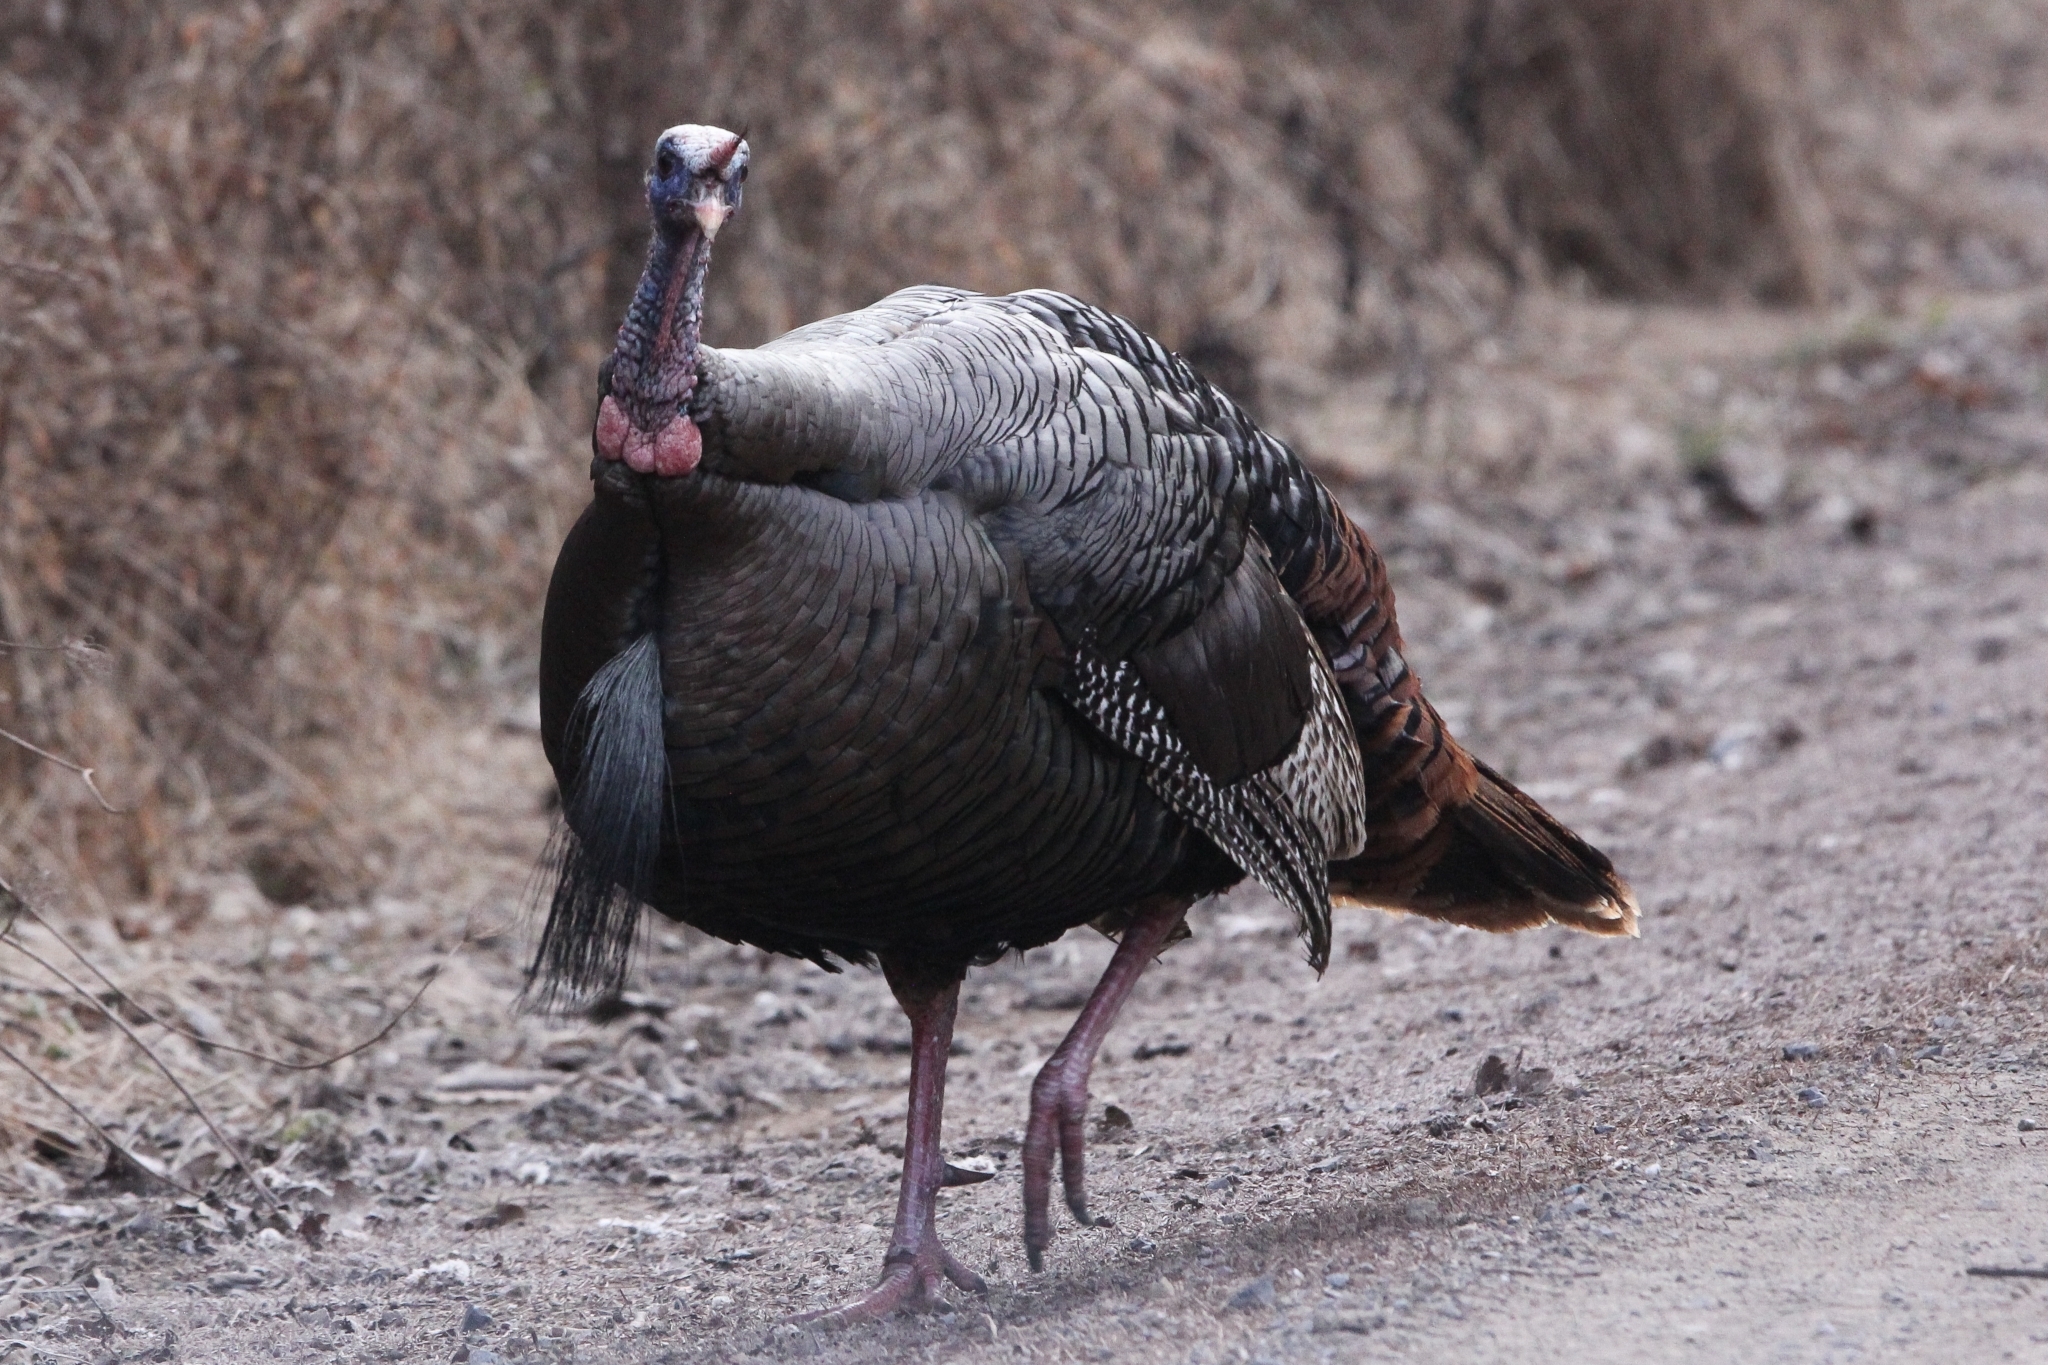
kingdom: Animalia
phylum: Chordata
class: Aves
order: Galliformes
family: Phasianidae
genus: Meleagris
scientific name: Meleagris gallopavo
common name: Wild turkey
